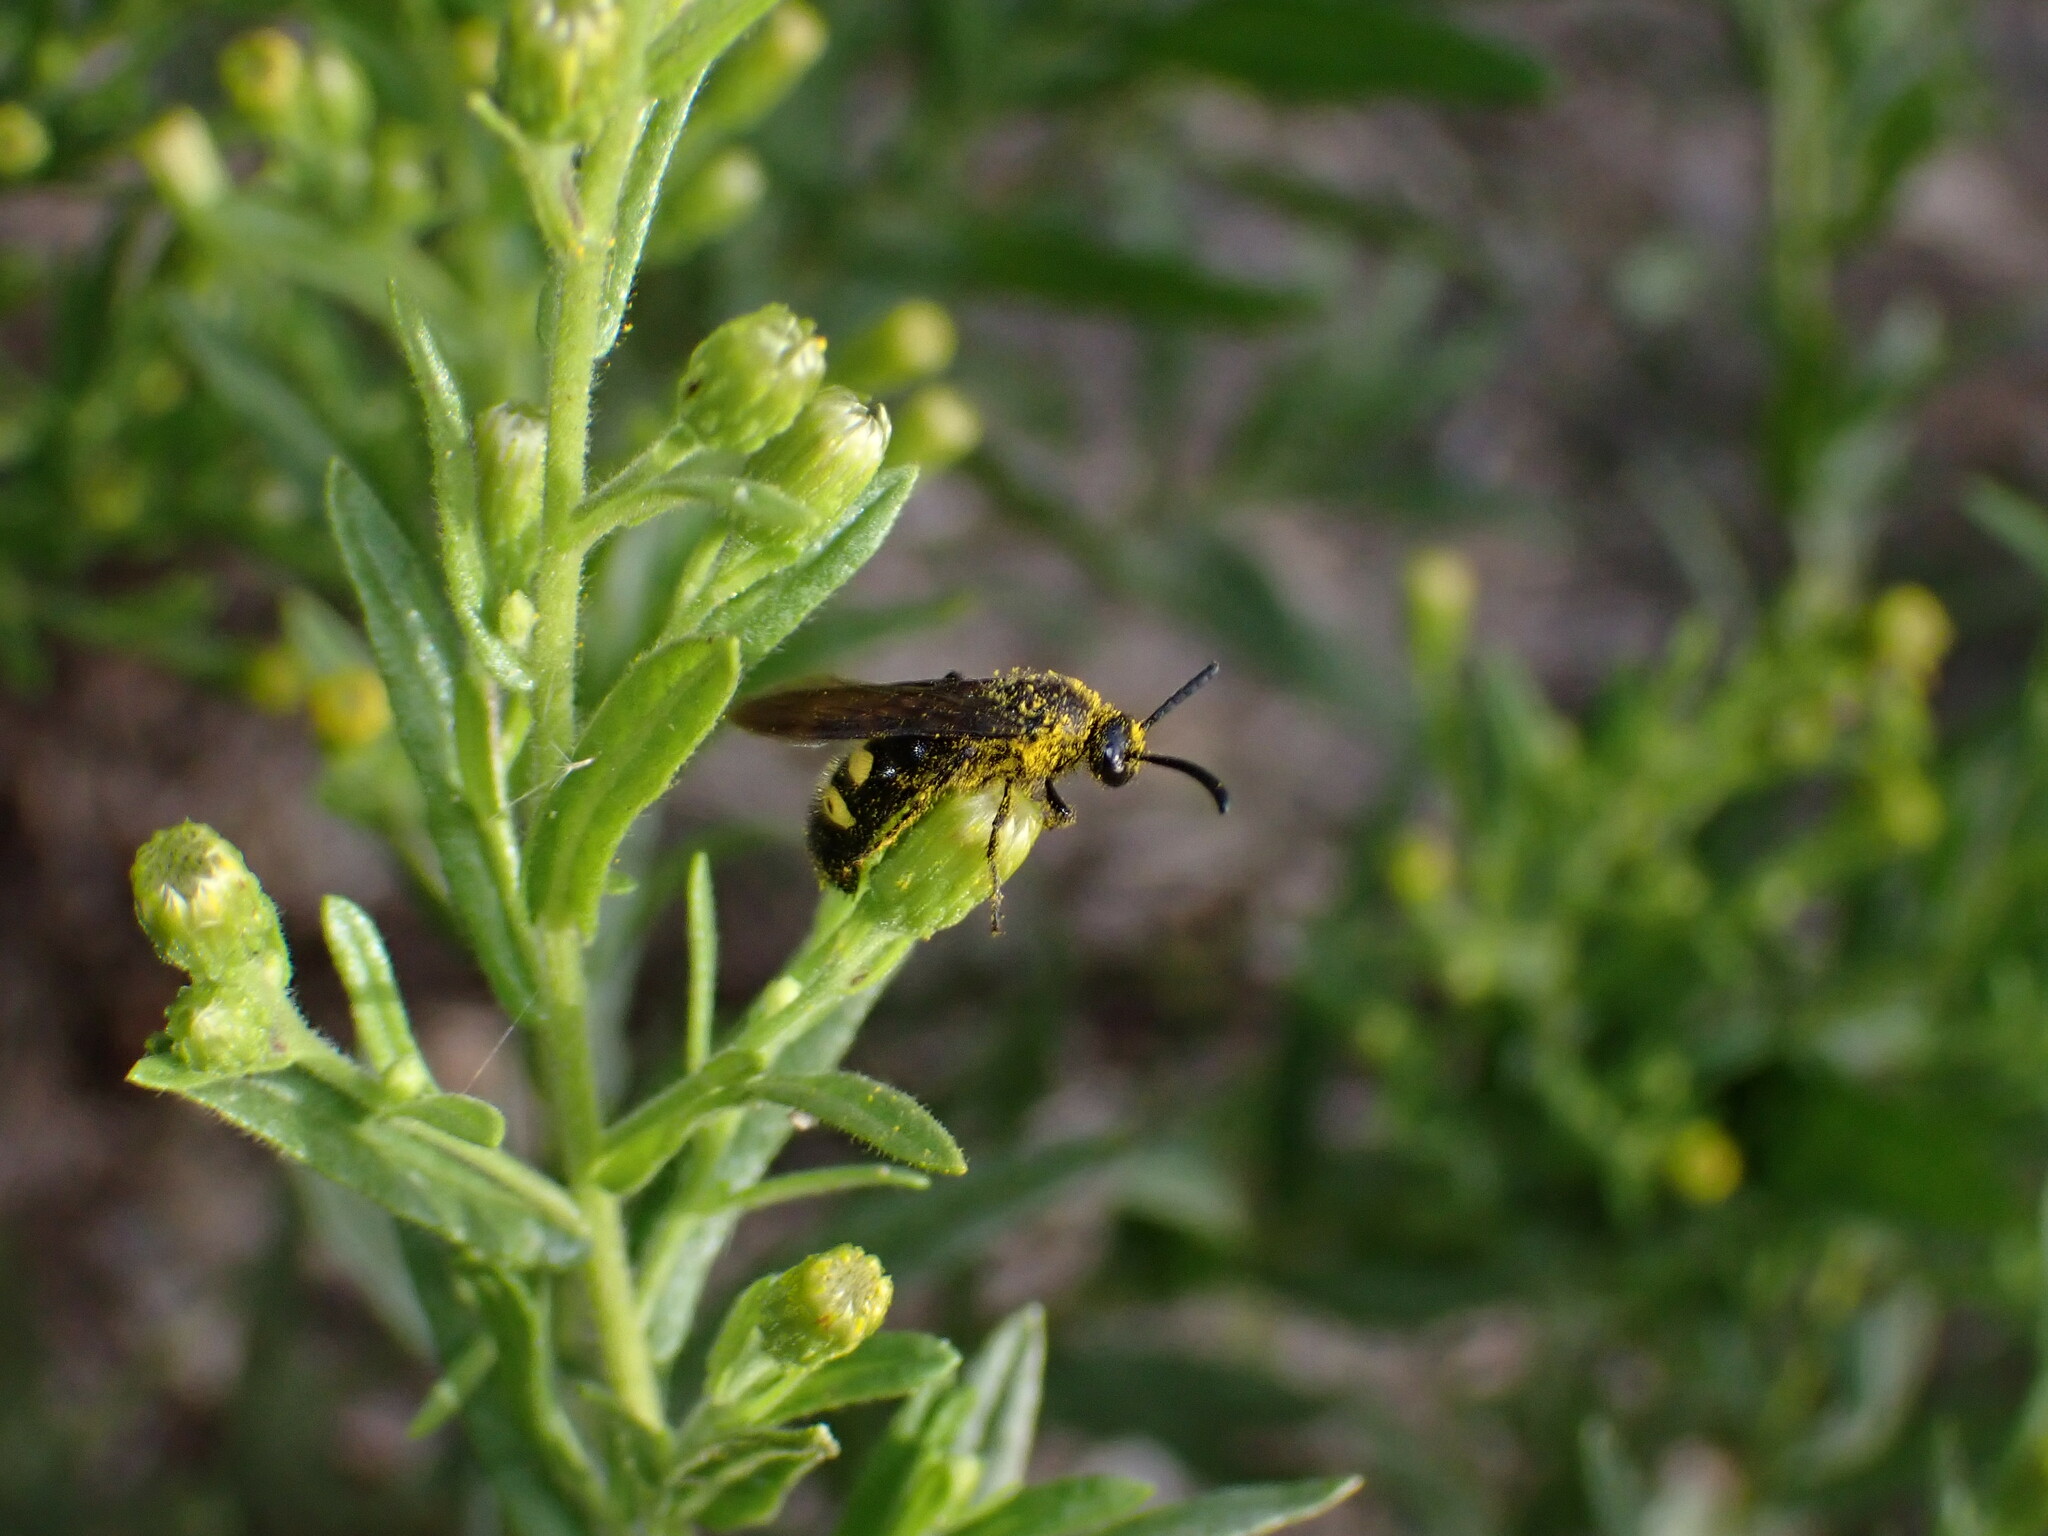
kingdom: Animalia
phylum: Arthropoda
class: Insecta
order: Hymenoptera
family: Scoliidae
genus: Scolia
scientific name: Scolia hirta
